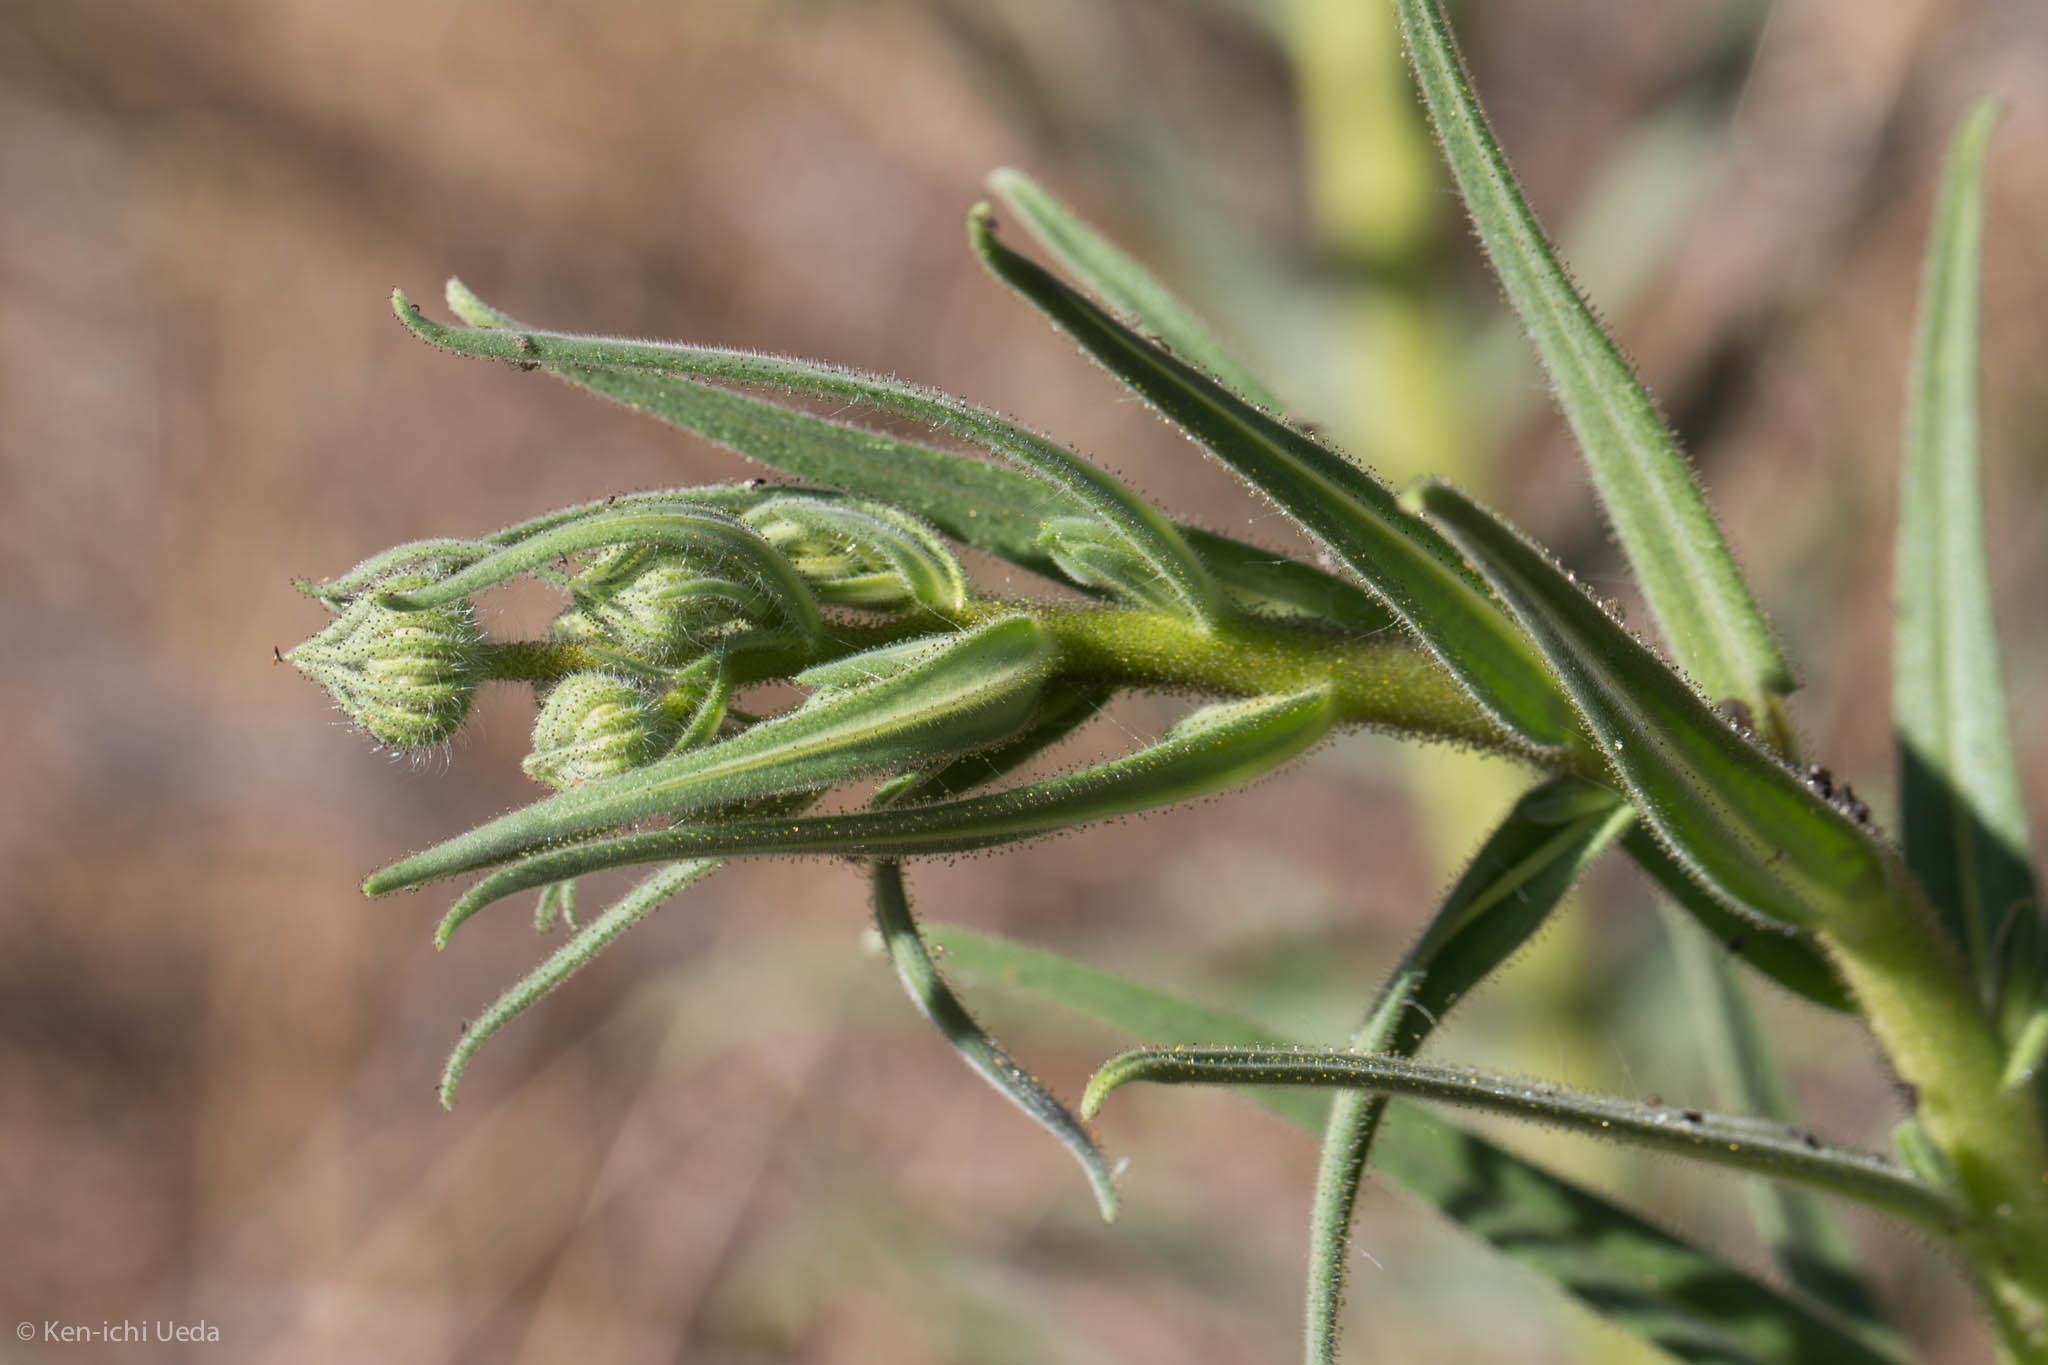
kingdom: Plantae
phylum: Tracheophyta
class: Magnoliopsida
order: Asterales
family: Asteraceae
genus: Madia
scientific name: Madia sativa
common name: Coast tarweed
